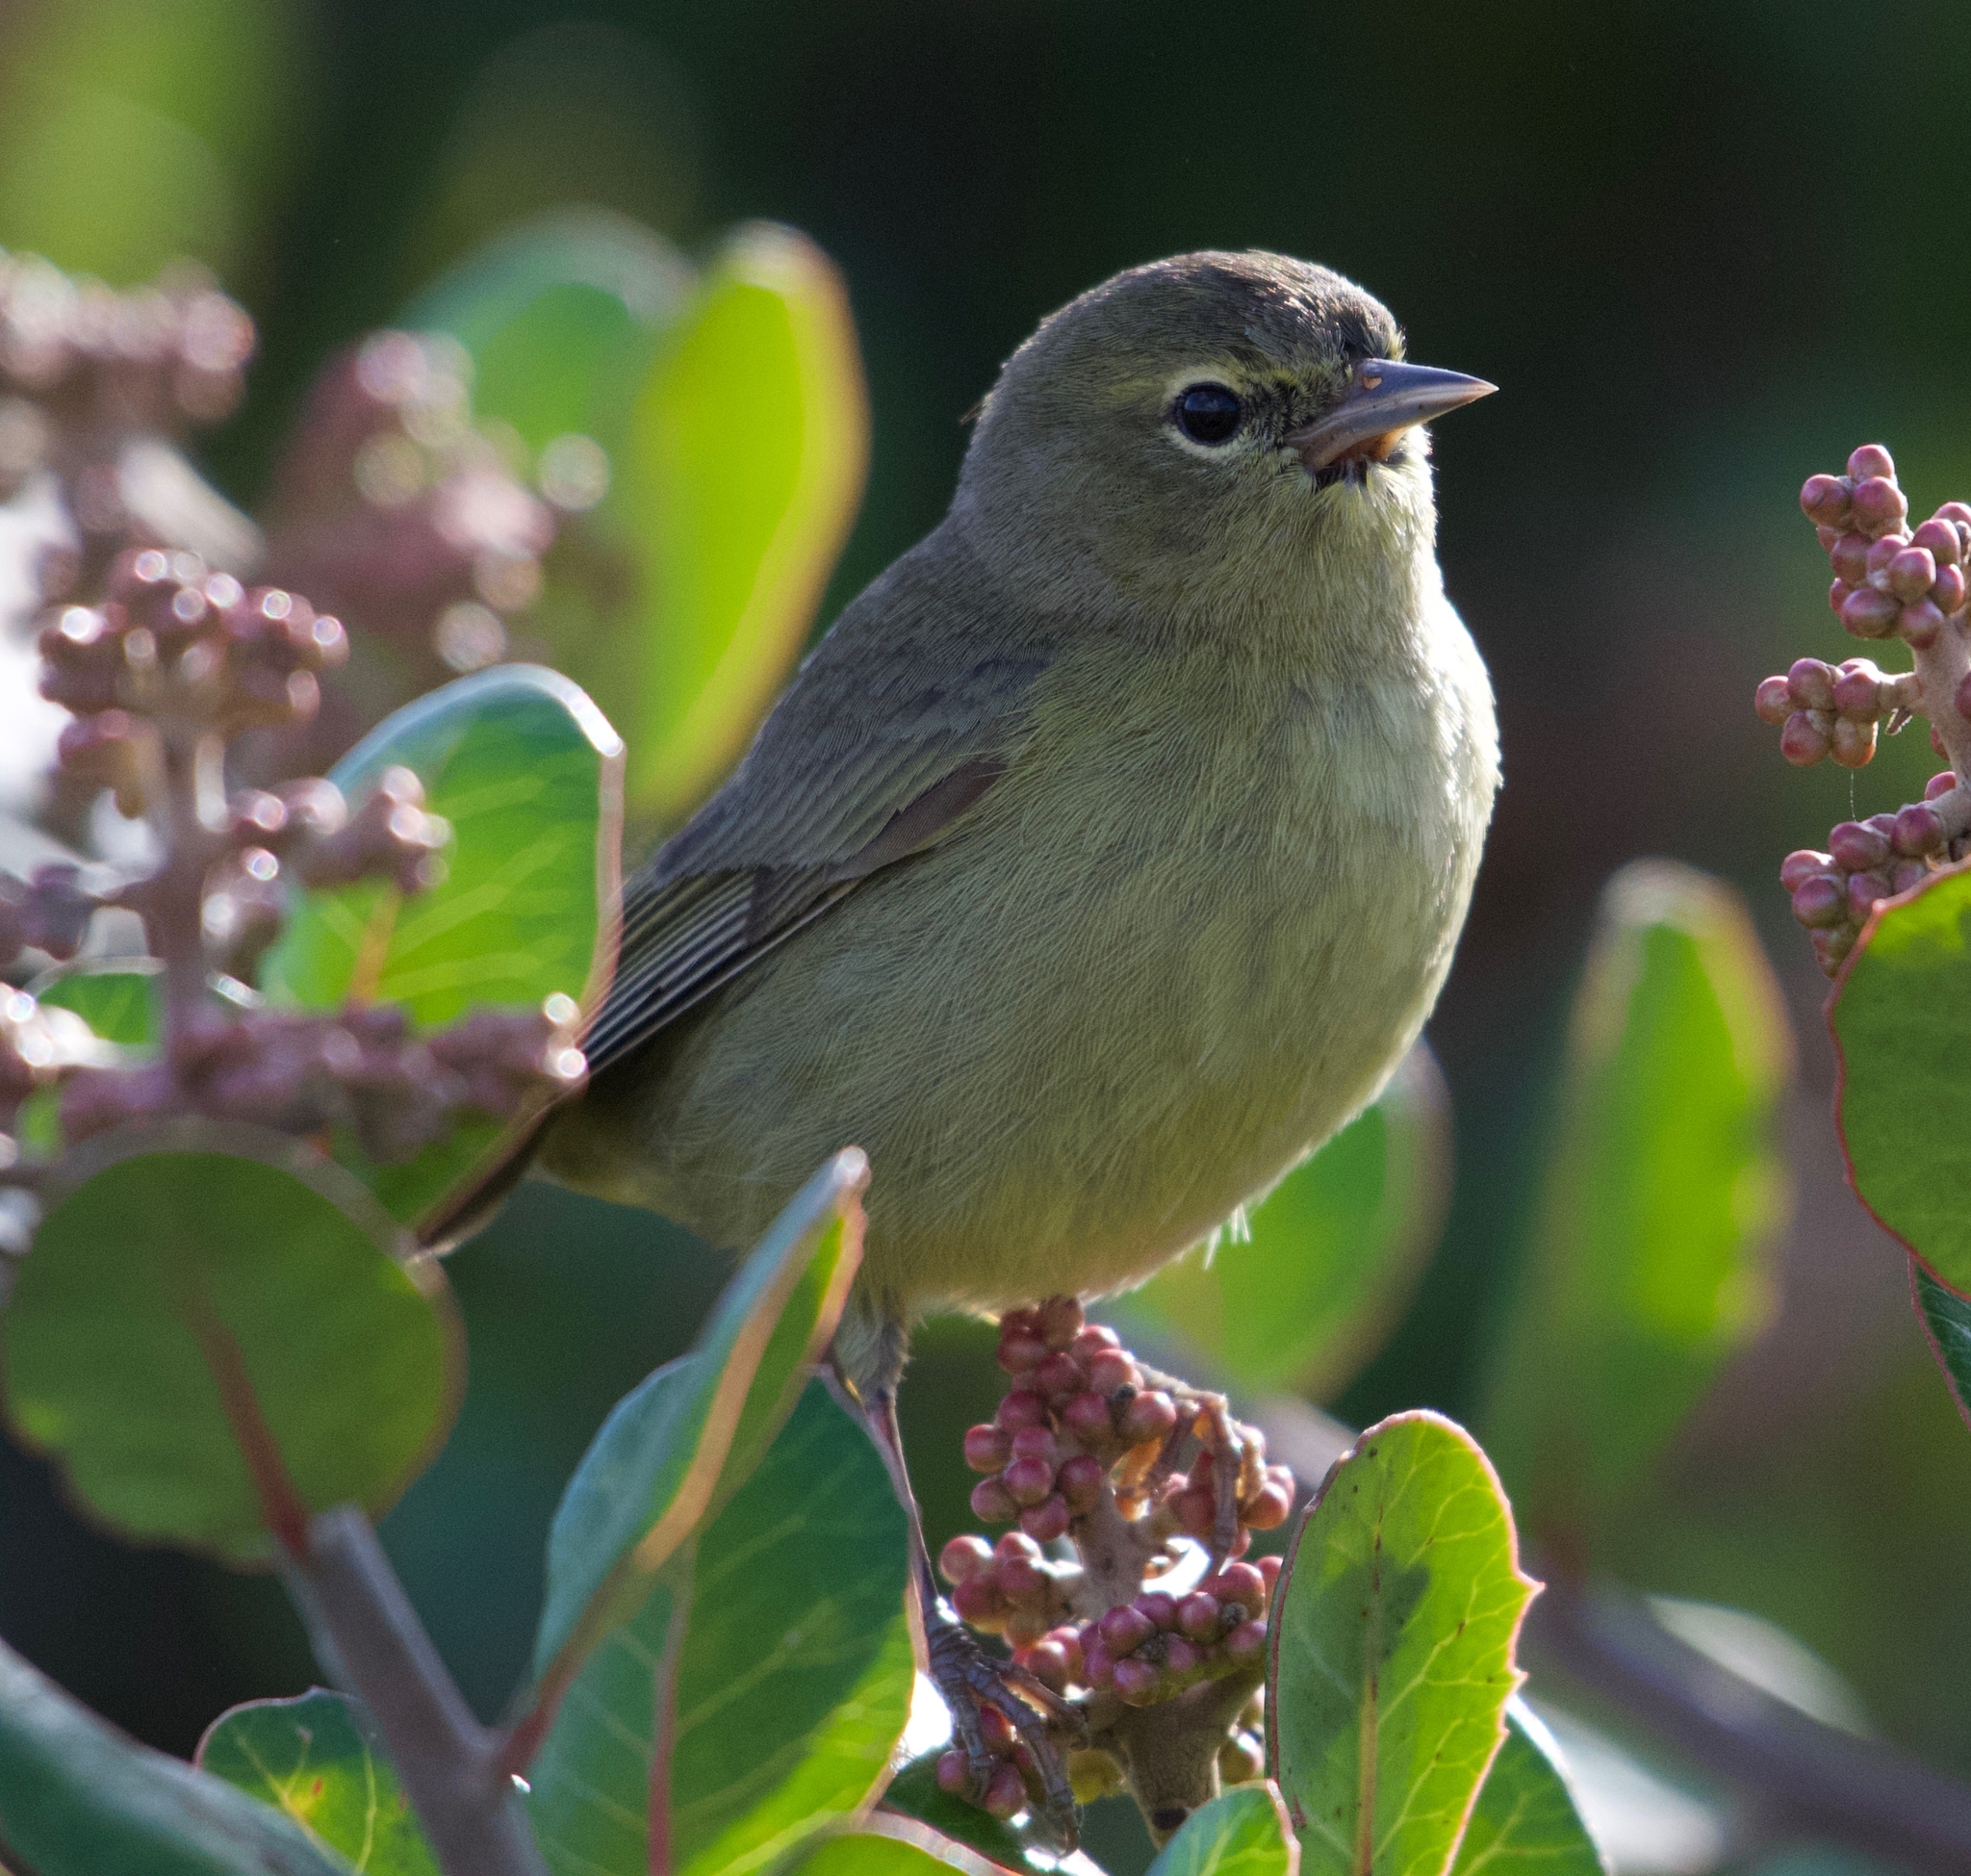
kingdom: Animalia
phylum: Chordata
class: Aves
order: Passeriformes
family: Parulidae
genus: Leiothlypis
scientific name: Leiothlypis celata
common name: Orange-crowned warbler
